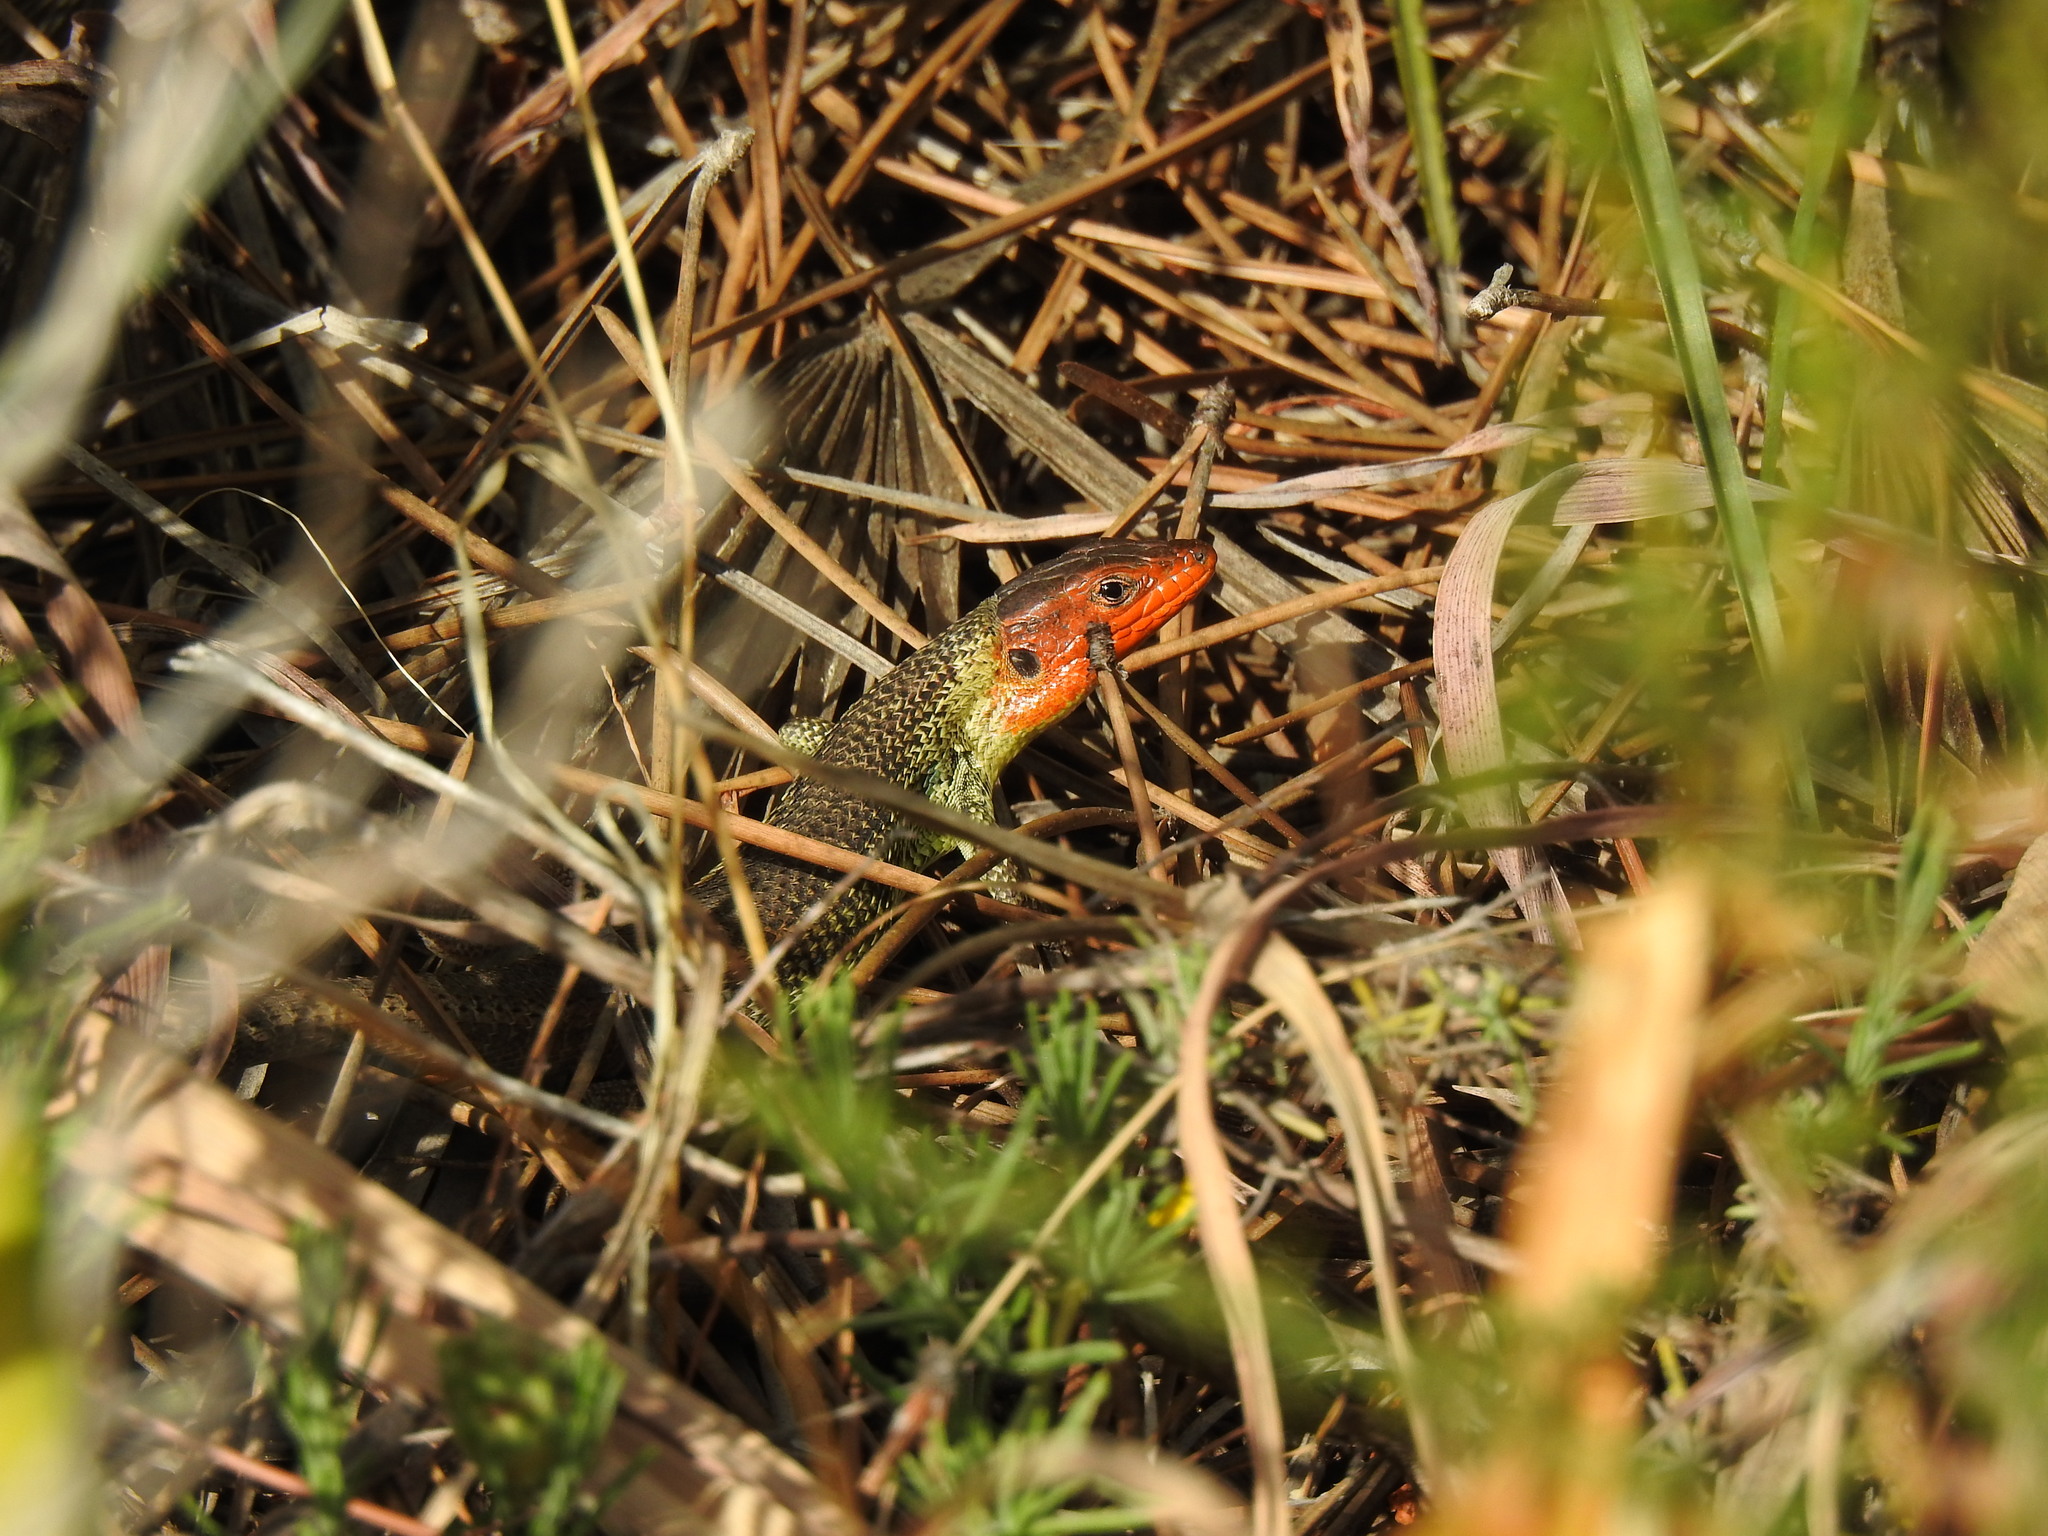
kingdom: Animalia
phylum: Chordata
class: Squamata
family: Lacertidae
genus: Psammodromus
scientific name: Psammodromus algirus
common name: Algerian psammodromus
